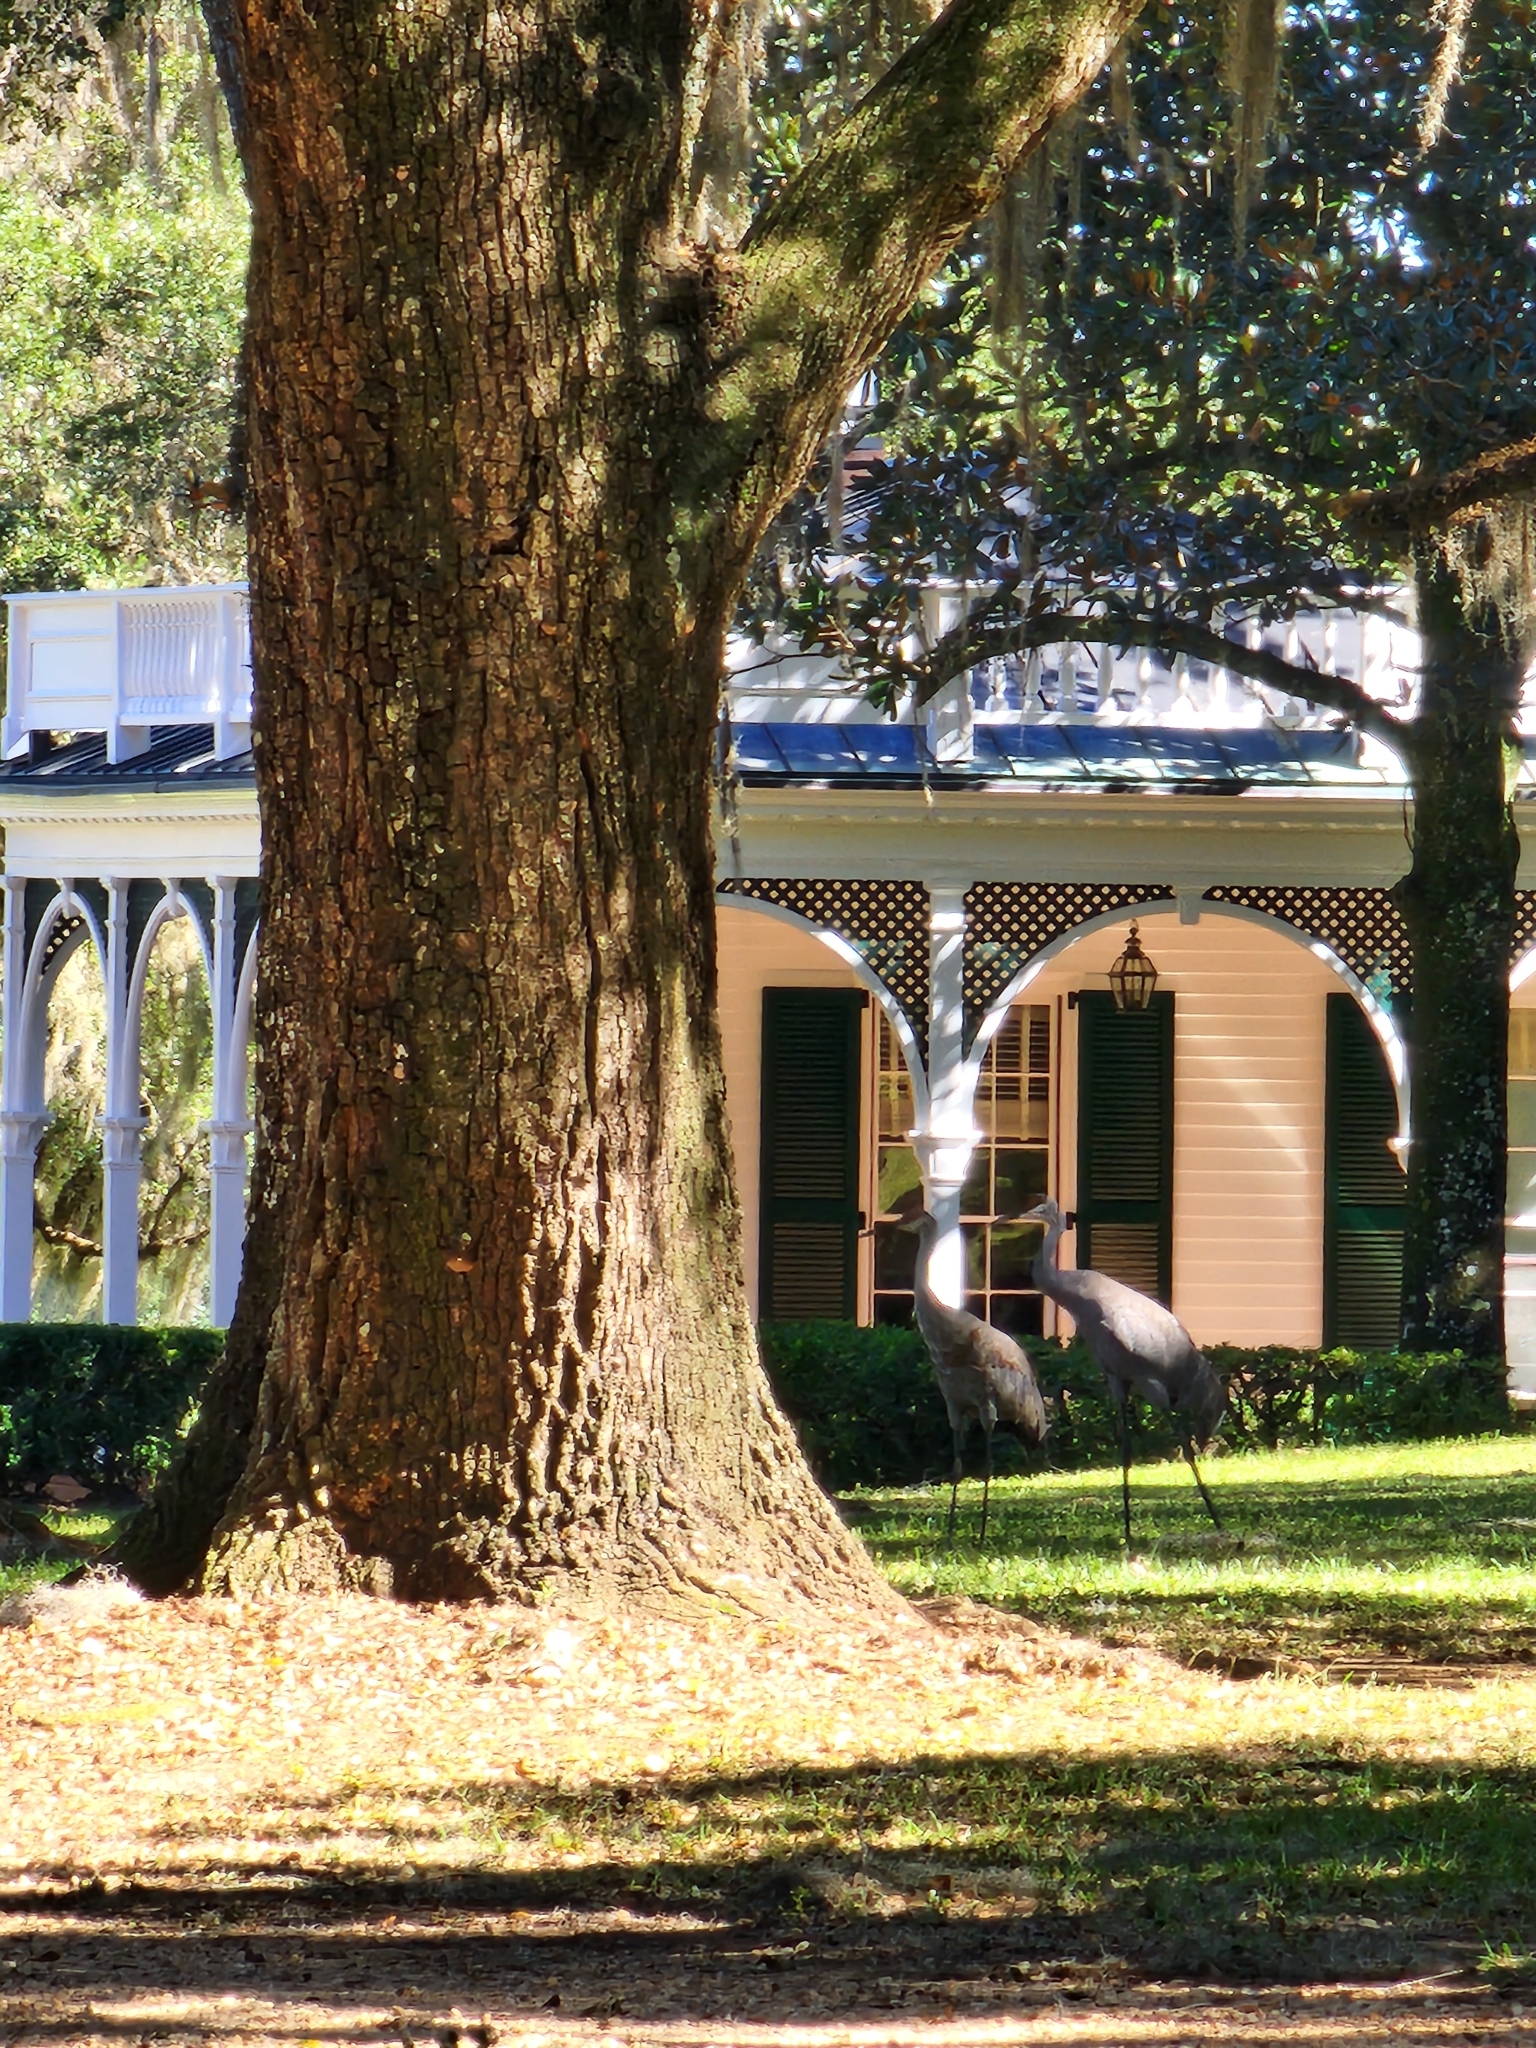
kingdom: Animalia
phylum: Chordata
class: Aves
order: Gruiformes
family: Gruidae
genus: Grus
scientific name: Grus canadensis
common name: Sandhill crane
